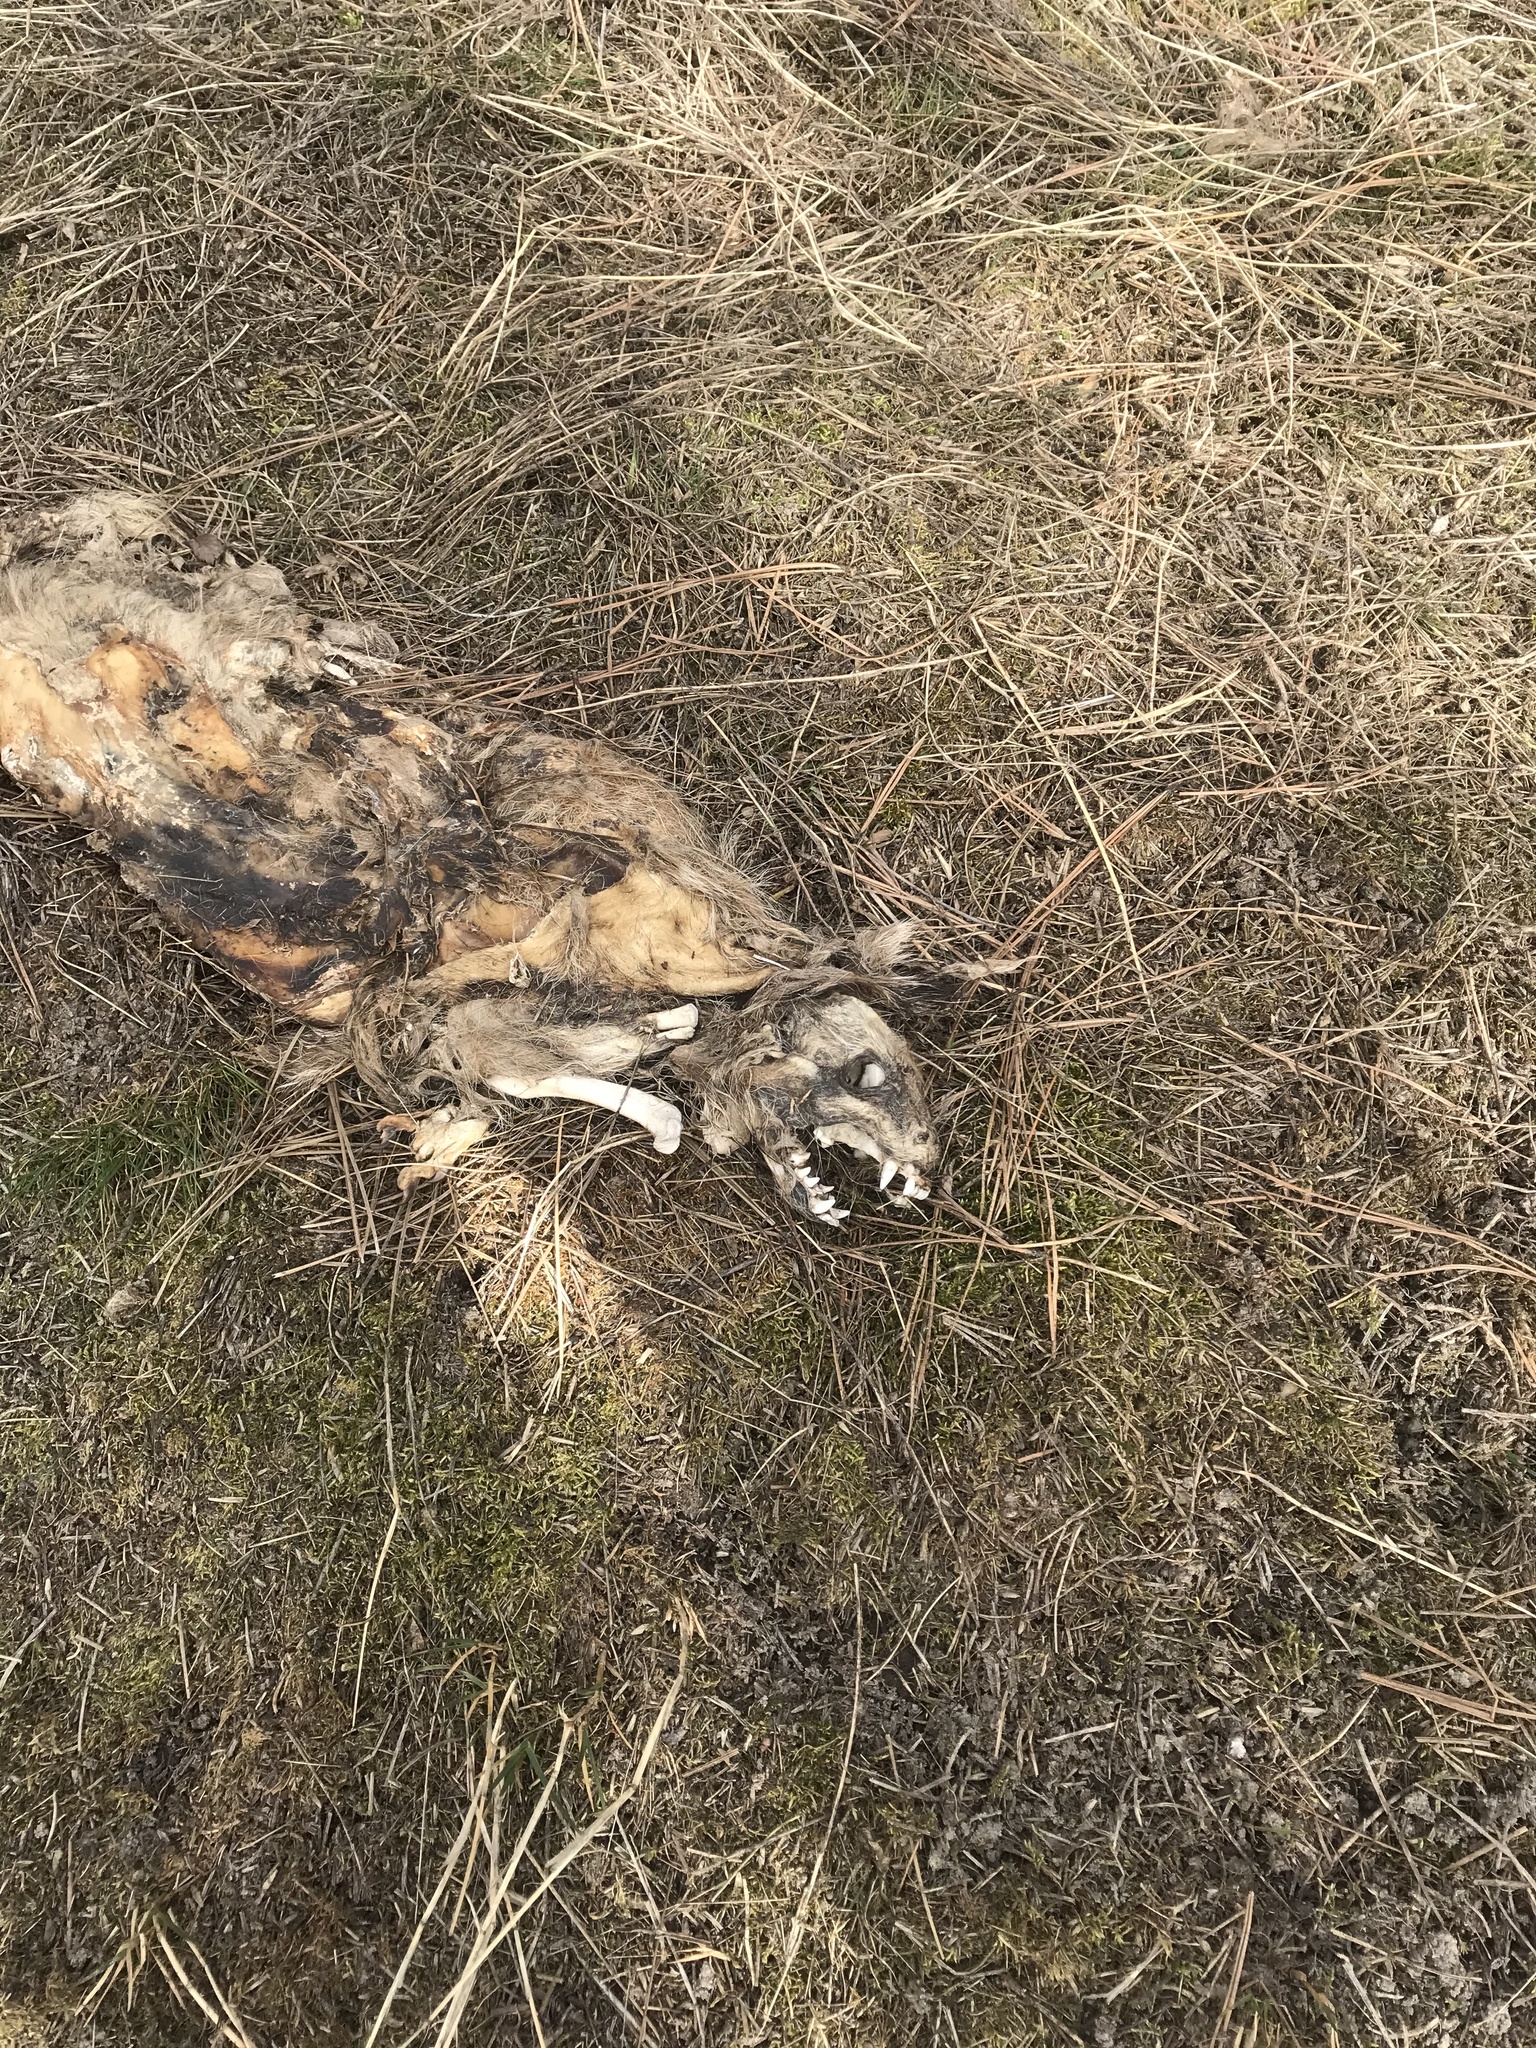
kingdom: Animalia
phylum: Chordata
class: Mammalia
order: Carnivora
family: Procyonidae
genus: Procyon
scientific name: Procyon lotor
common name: Raccoon
